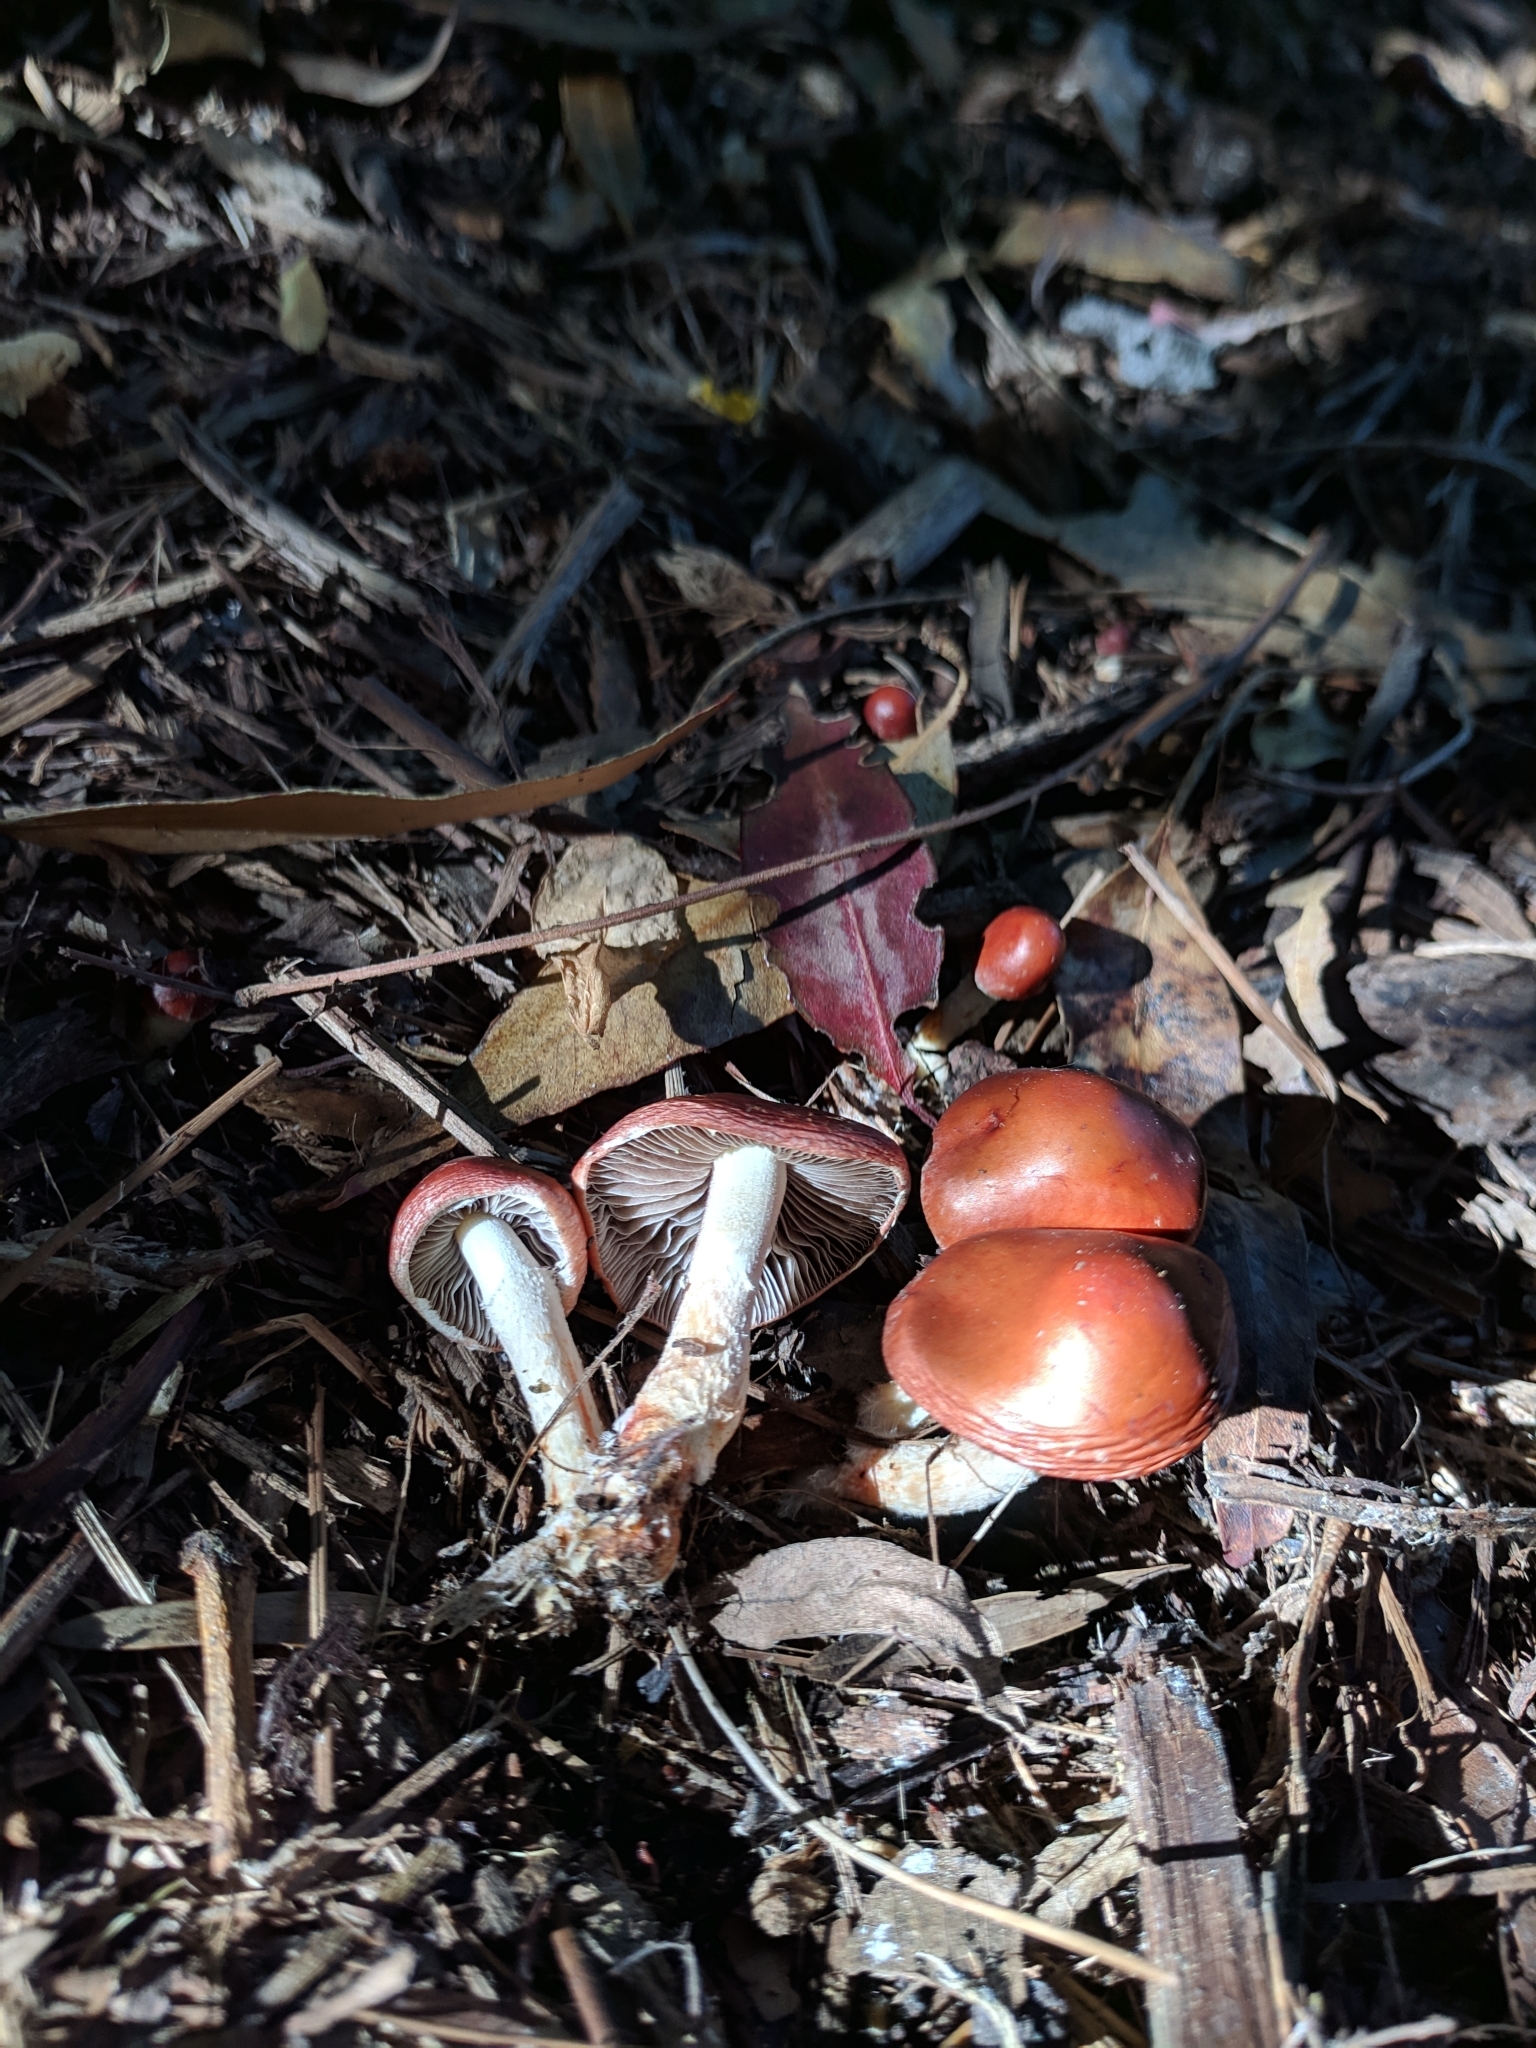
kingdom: Fungi
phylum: Basidiomycota
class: Agaricomycetes
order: Agaricales
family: Strophariaceae
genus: Leratiomyces
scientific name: Leratiomyces ceres
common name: Redlead roundhead
